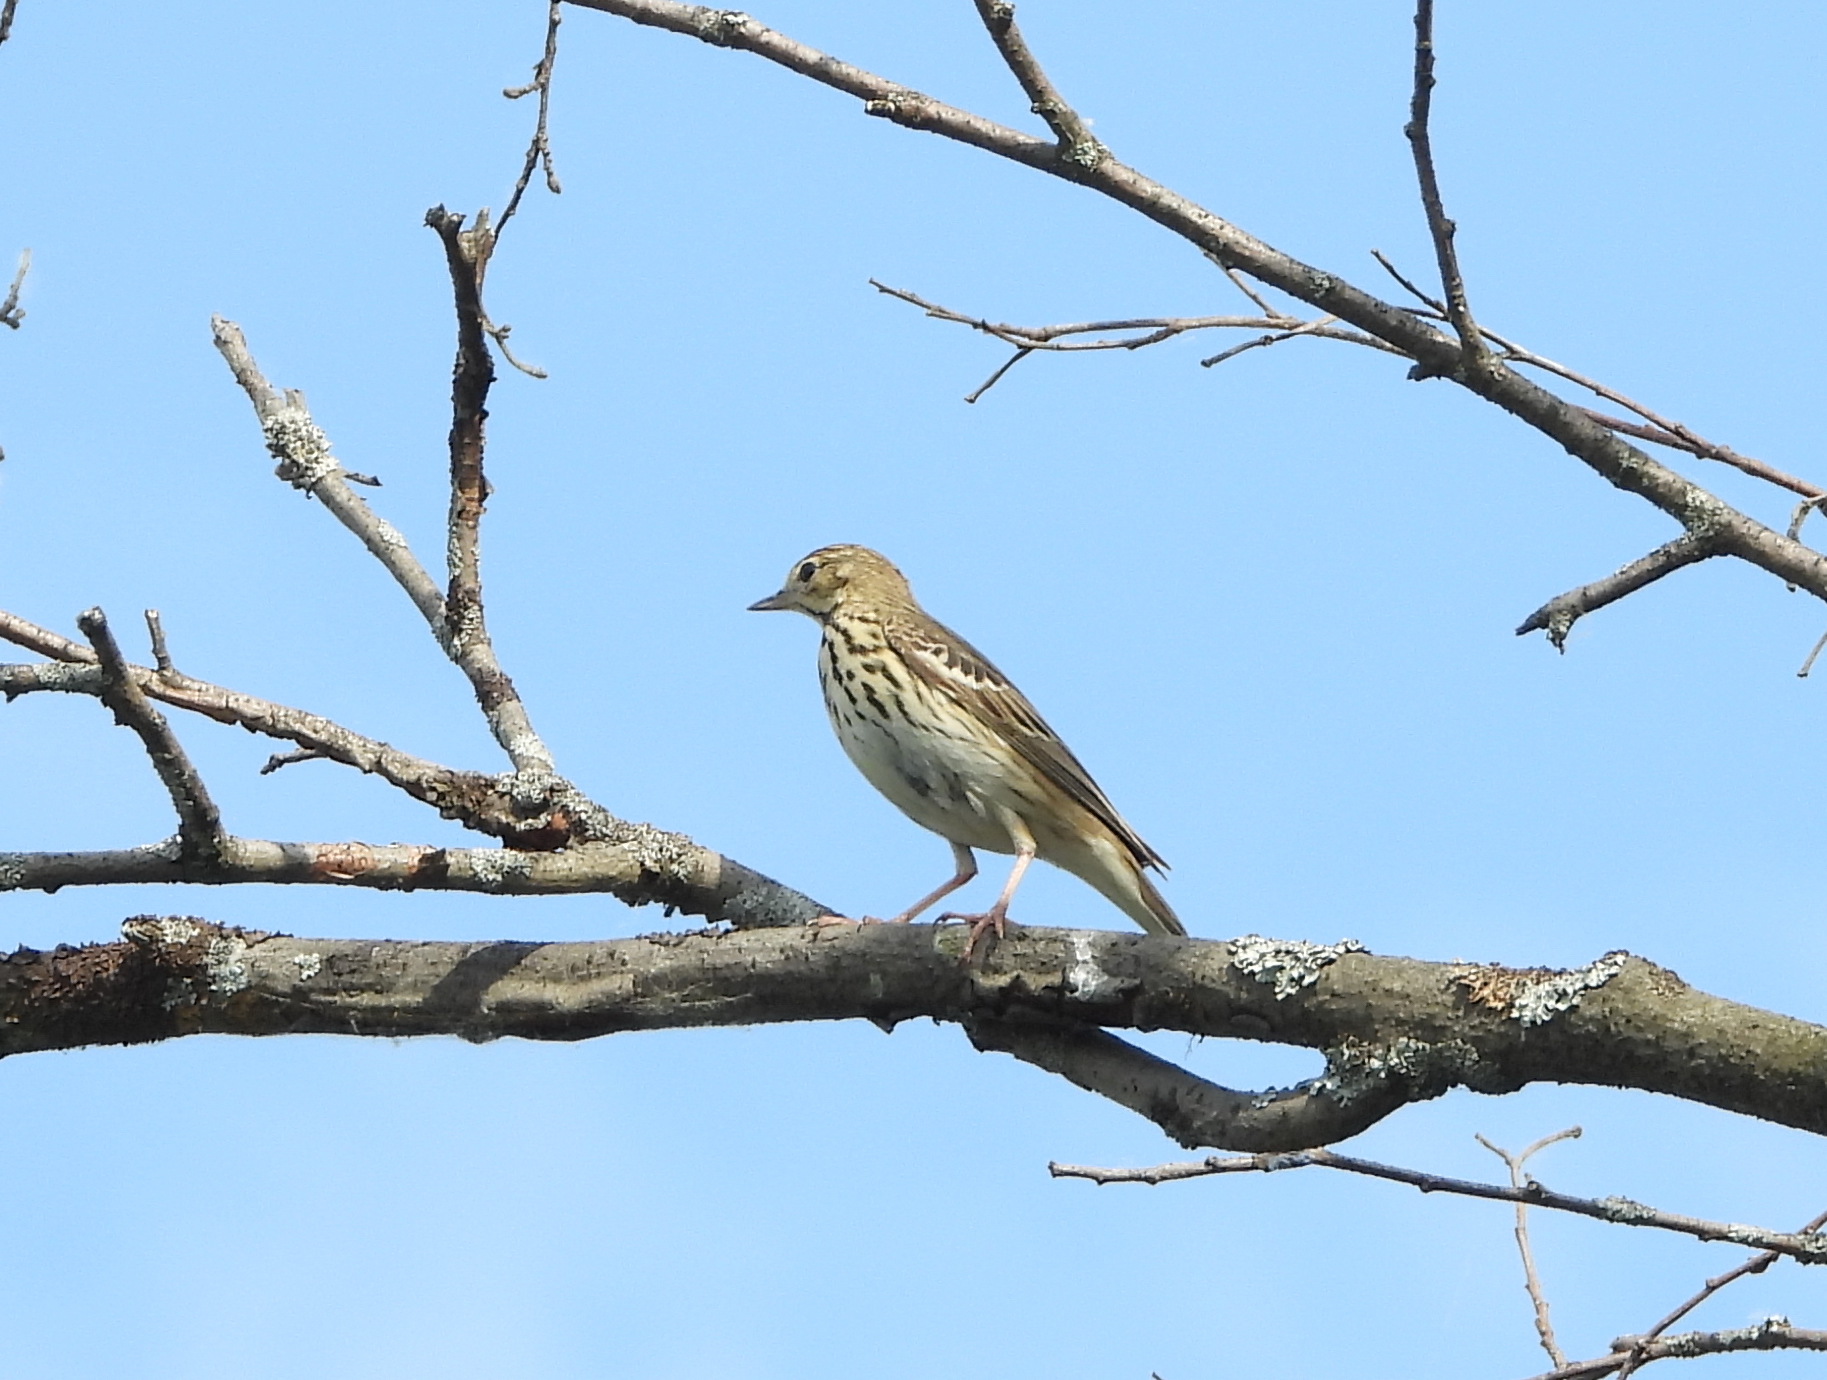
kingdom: Animalia
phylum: Chordata
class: Aves
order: Passeriformes
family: Motacillidae
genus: Anthus
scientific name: Anthus trivialis
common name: Tree pipit
